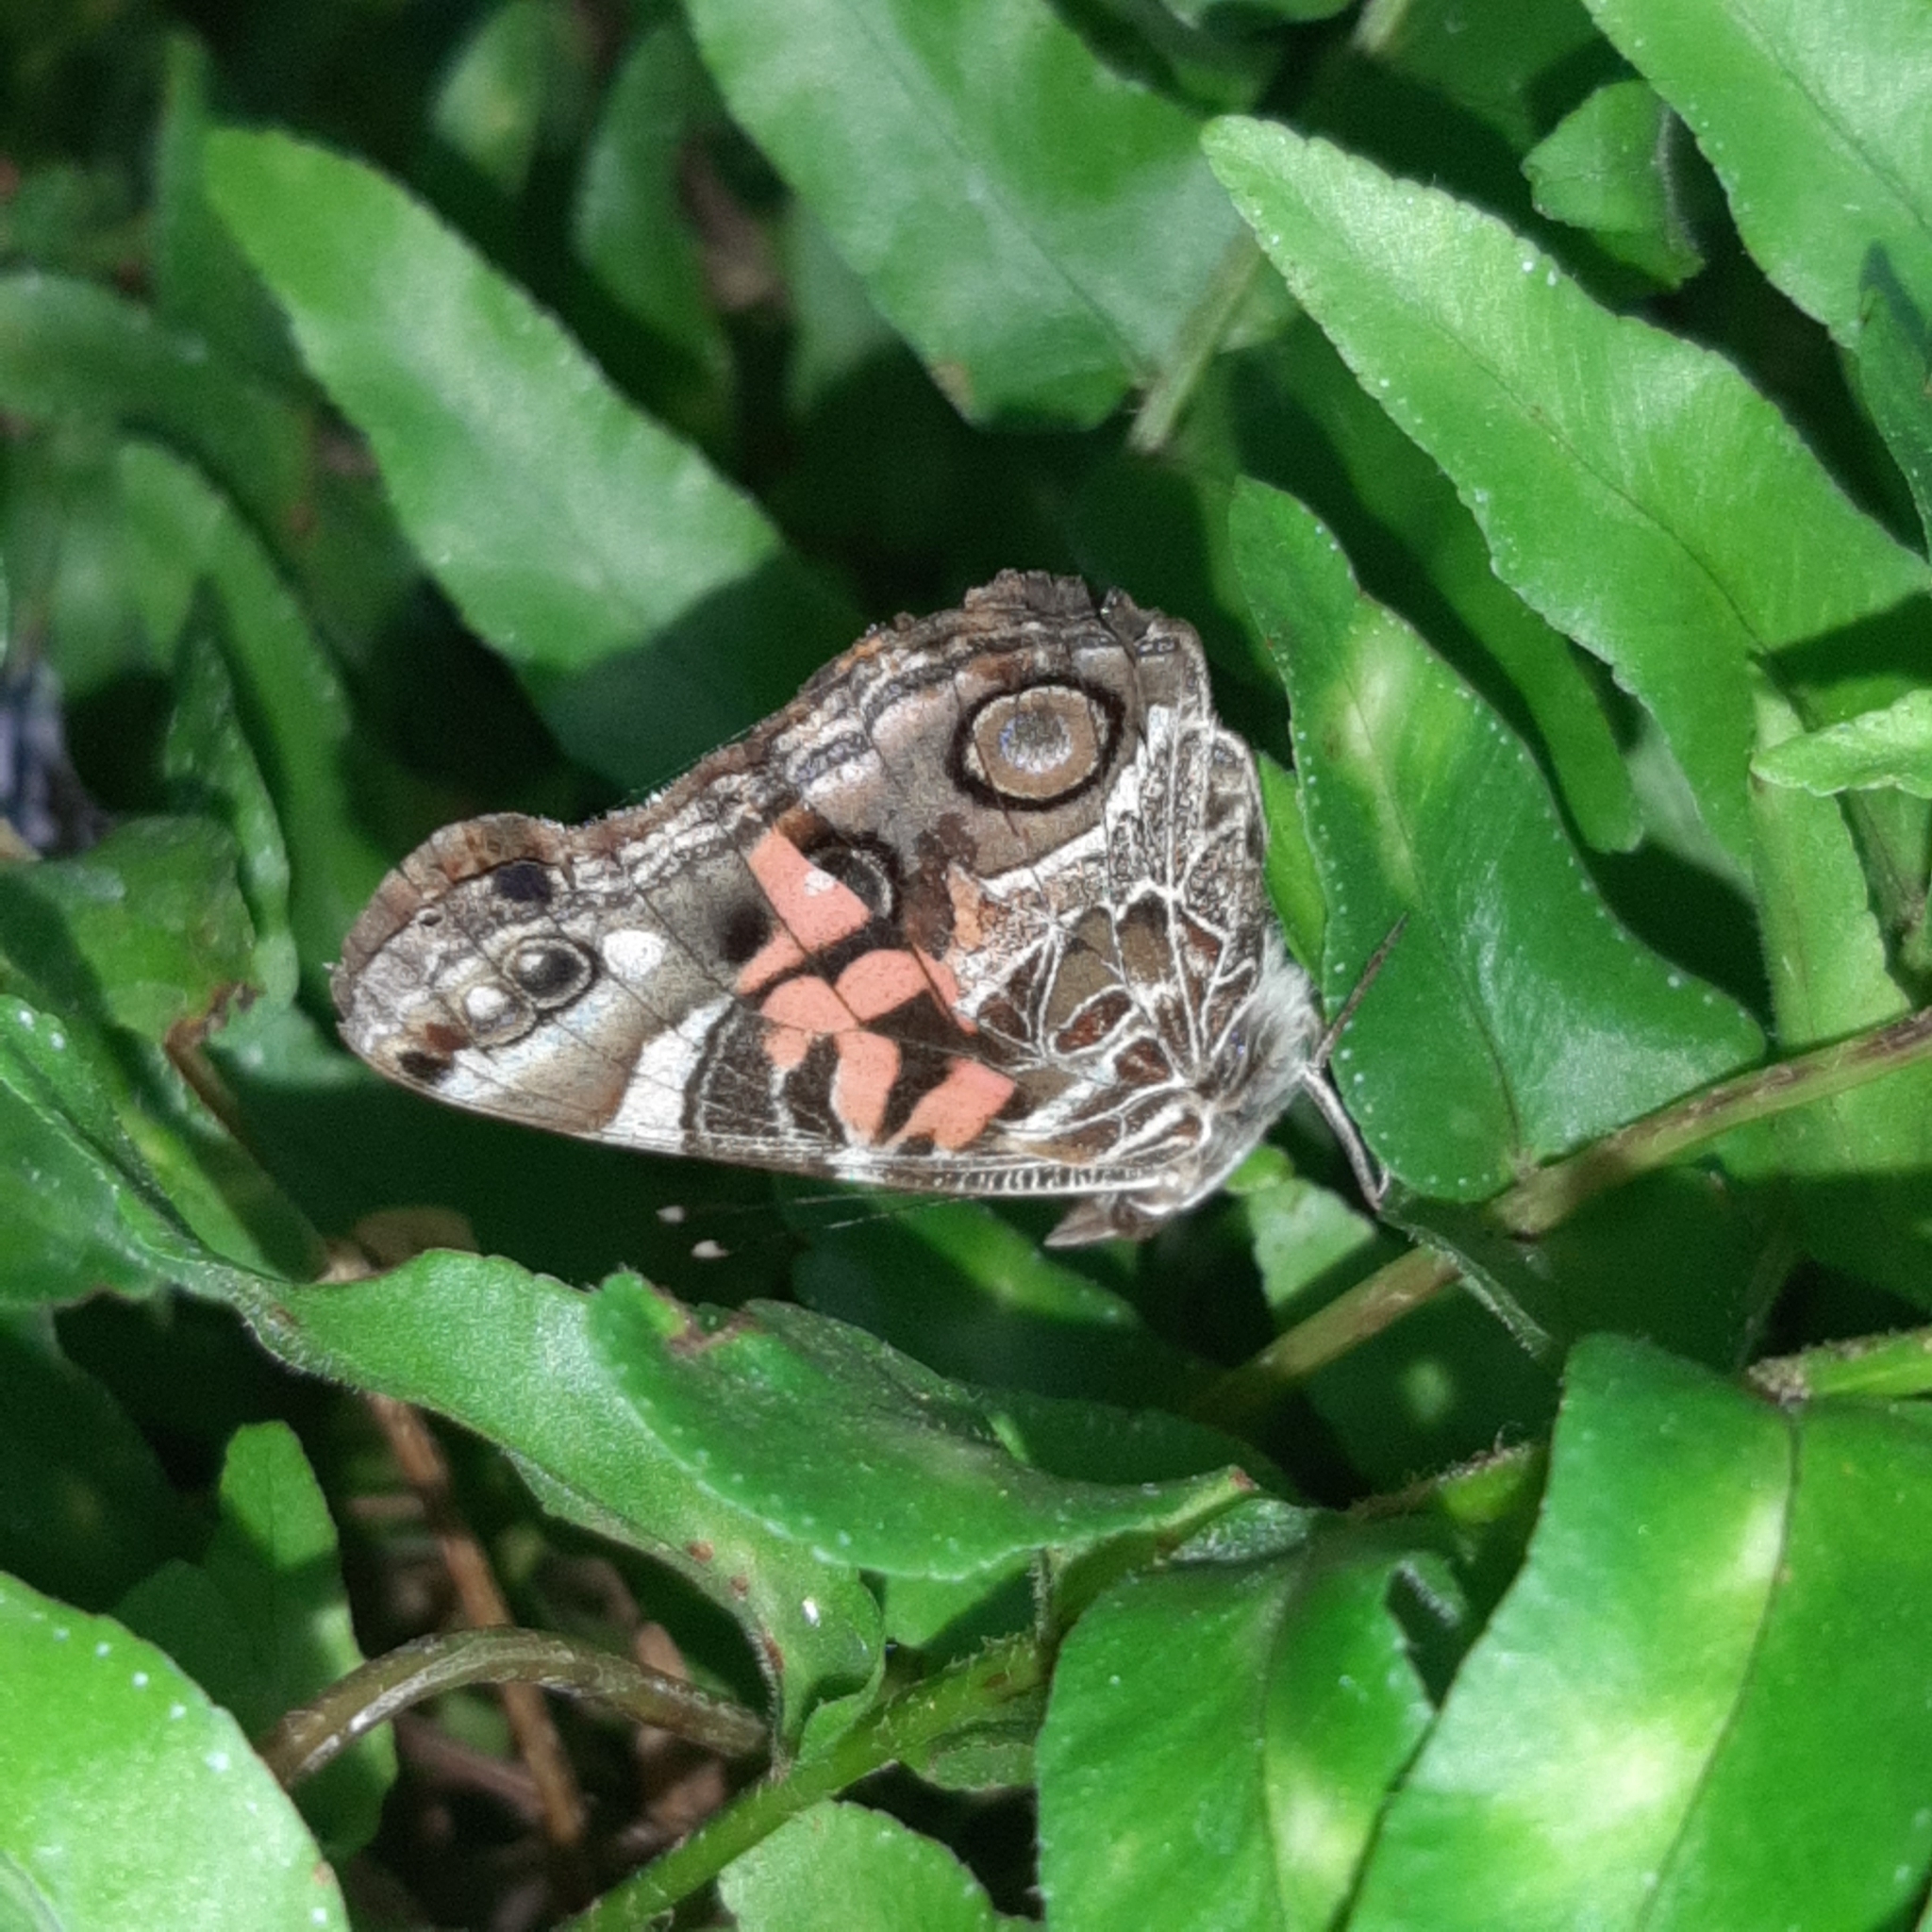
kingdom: Animalia
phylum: Arthropoda
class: Insecta
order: Lepidoptera
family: Nymphalidae
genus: Vanessa
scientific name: Vanessa virginiensis
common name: American lady
